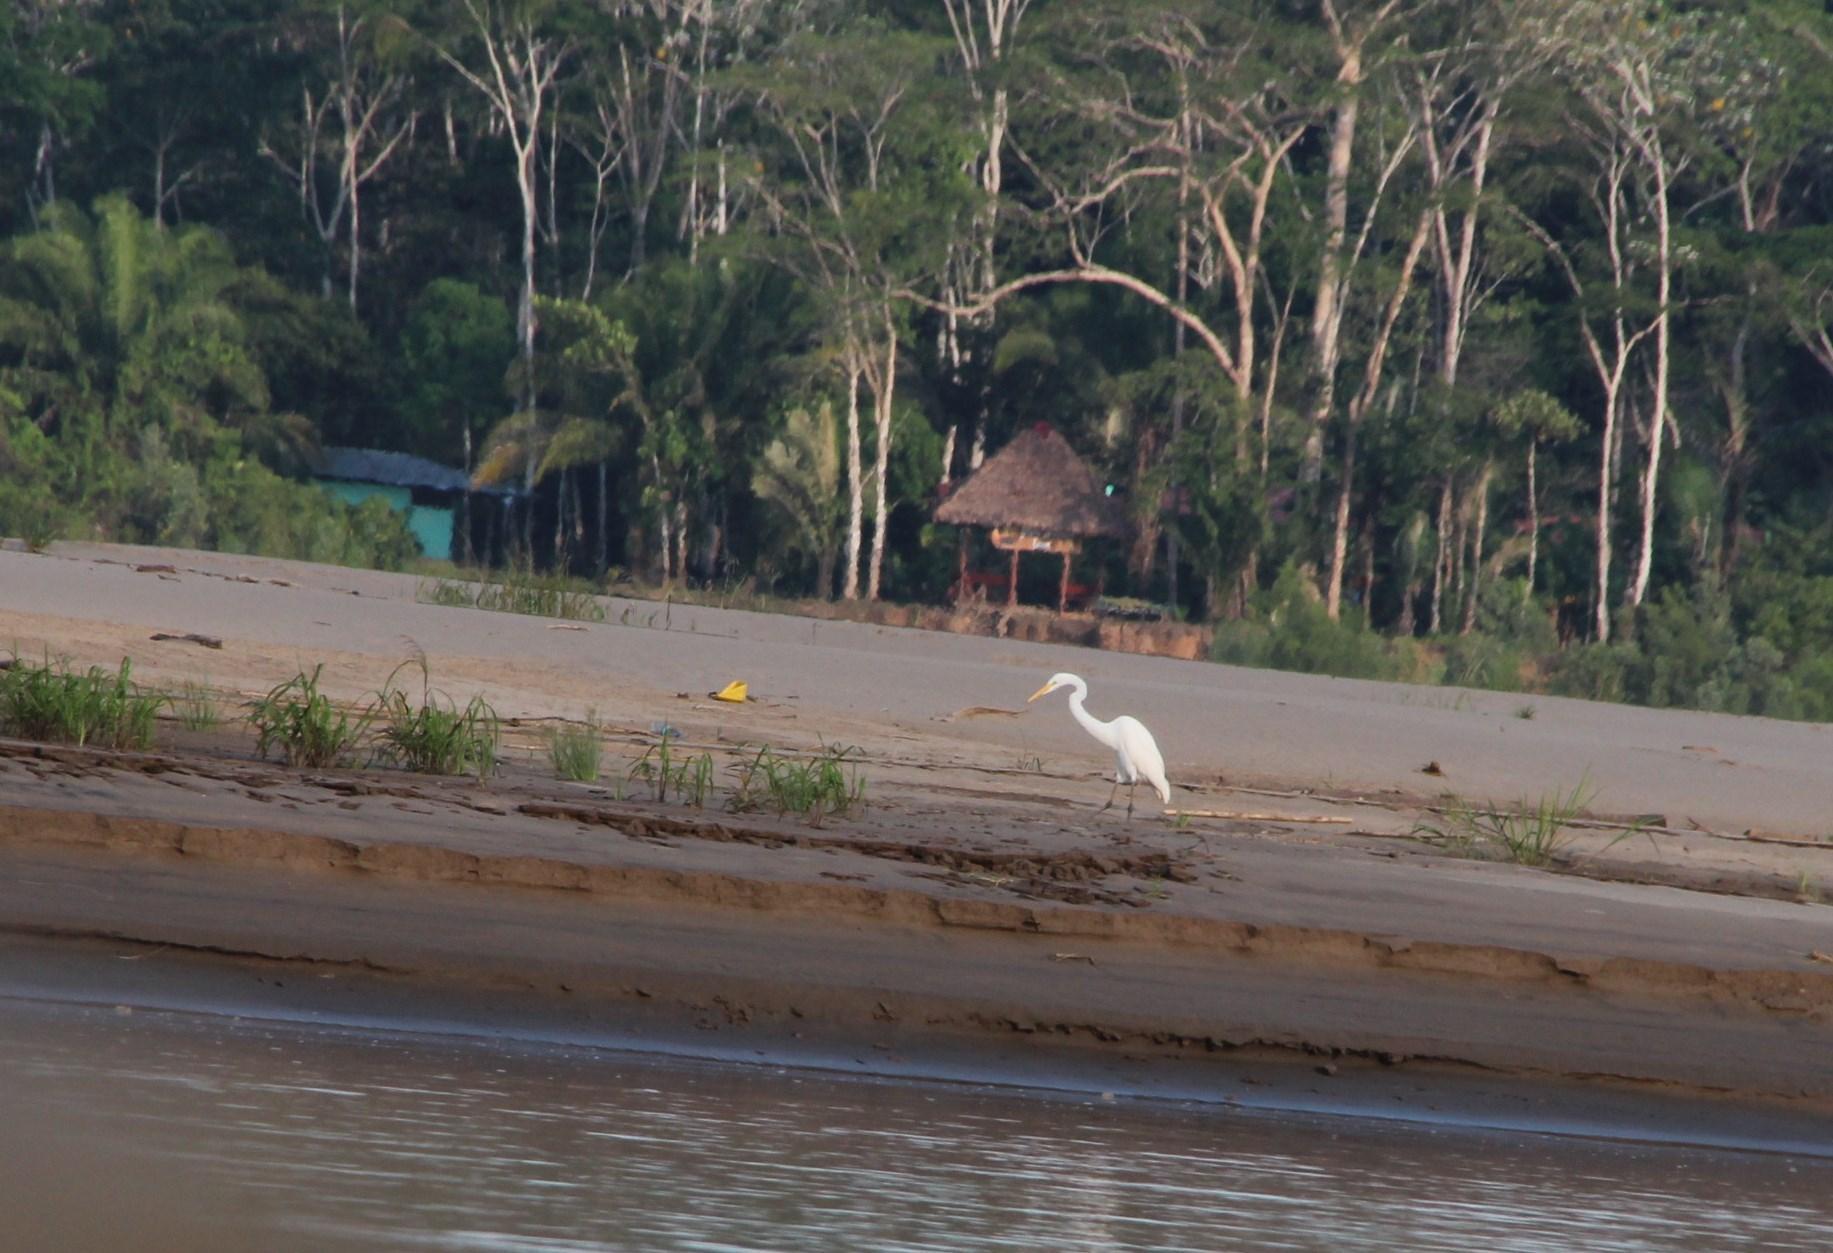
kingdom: Animalia
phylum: Chordata
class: Aves
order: Pelecaniformes
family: Ardeidae
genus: Ardea
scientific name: Ardea alba
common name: Great egret
